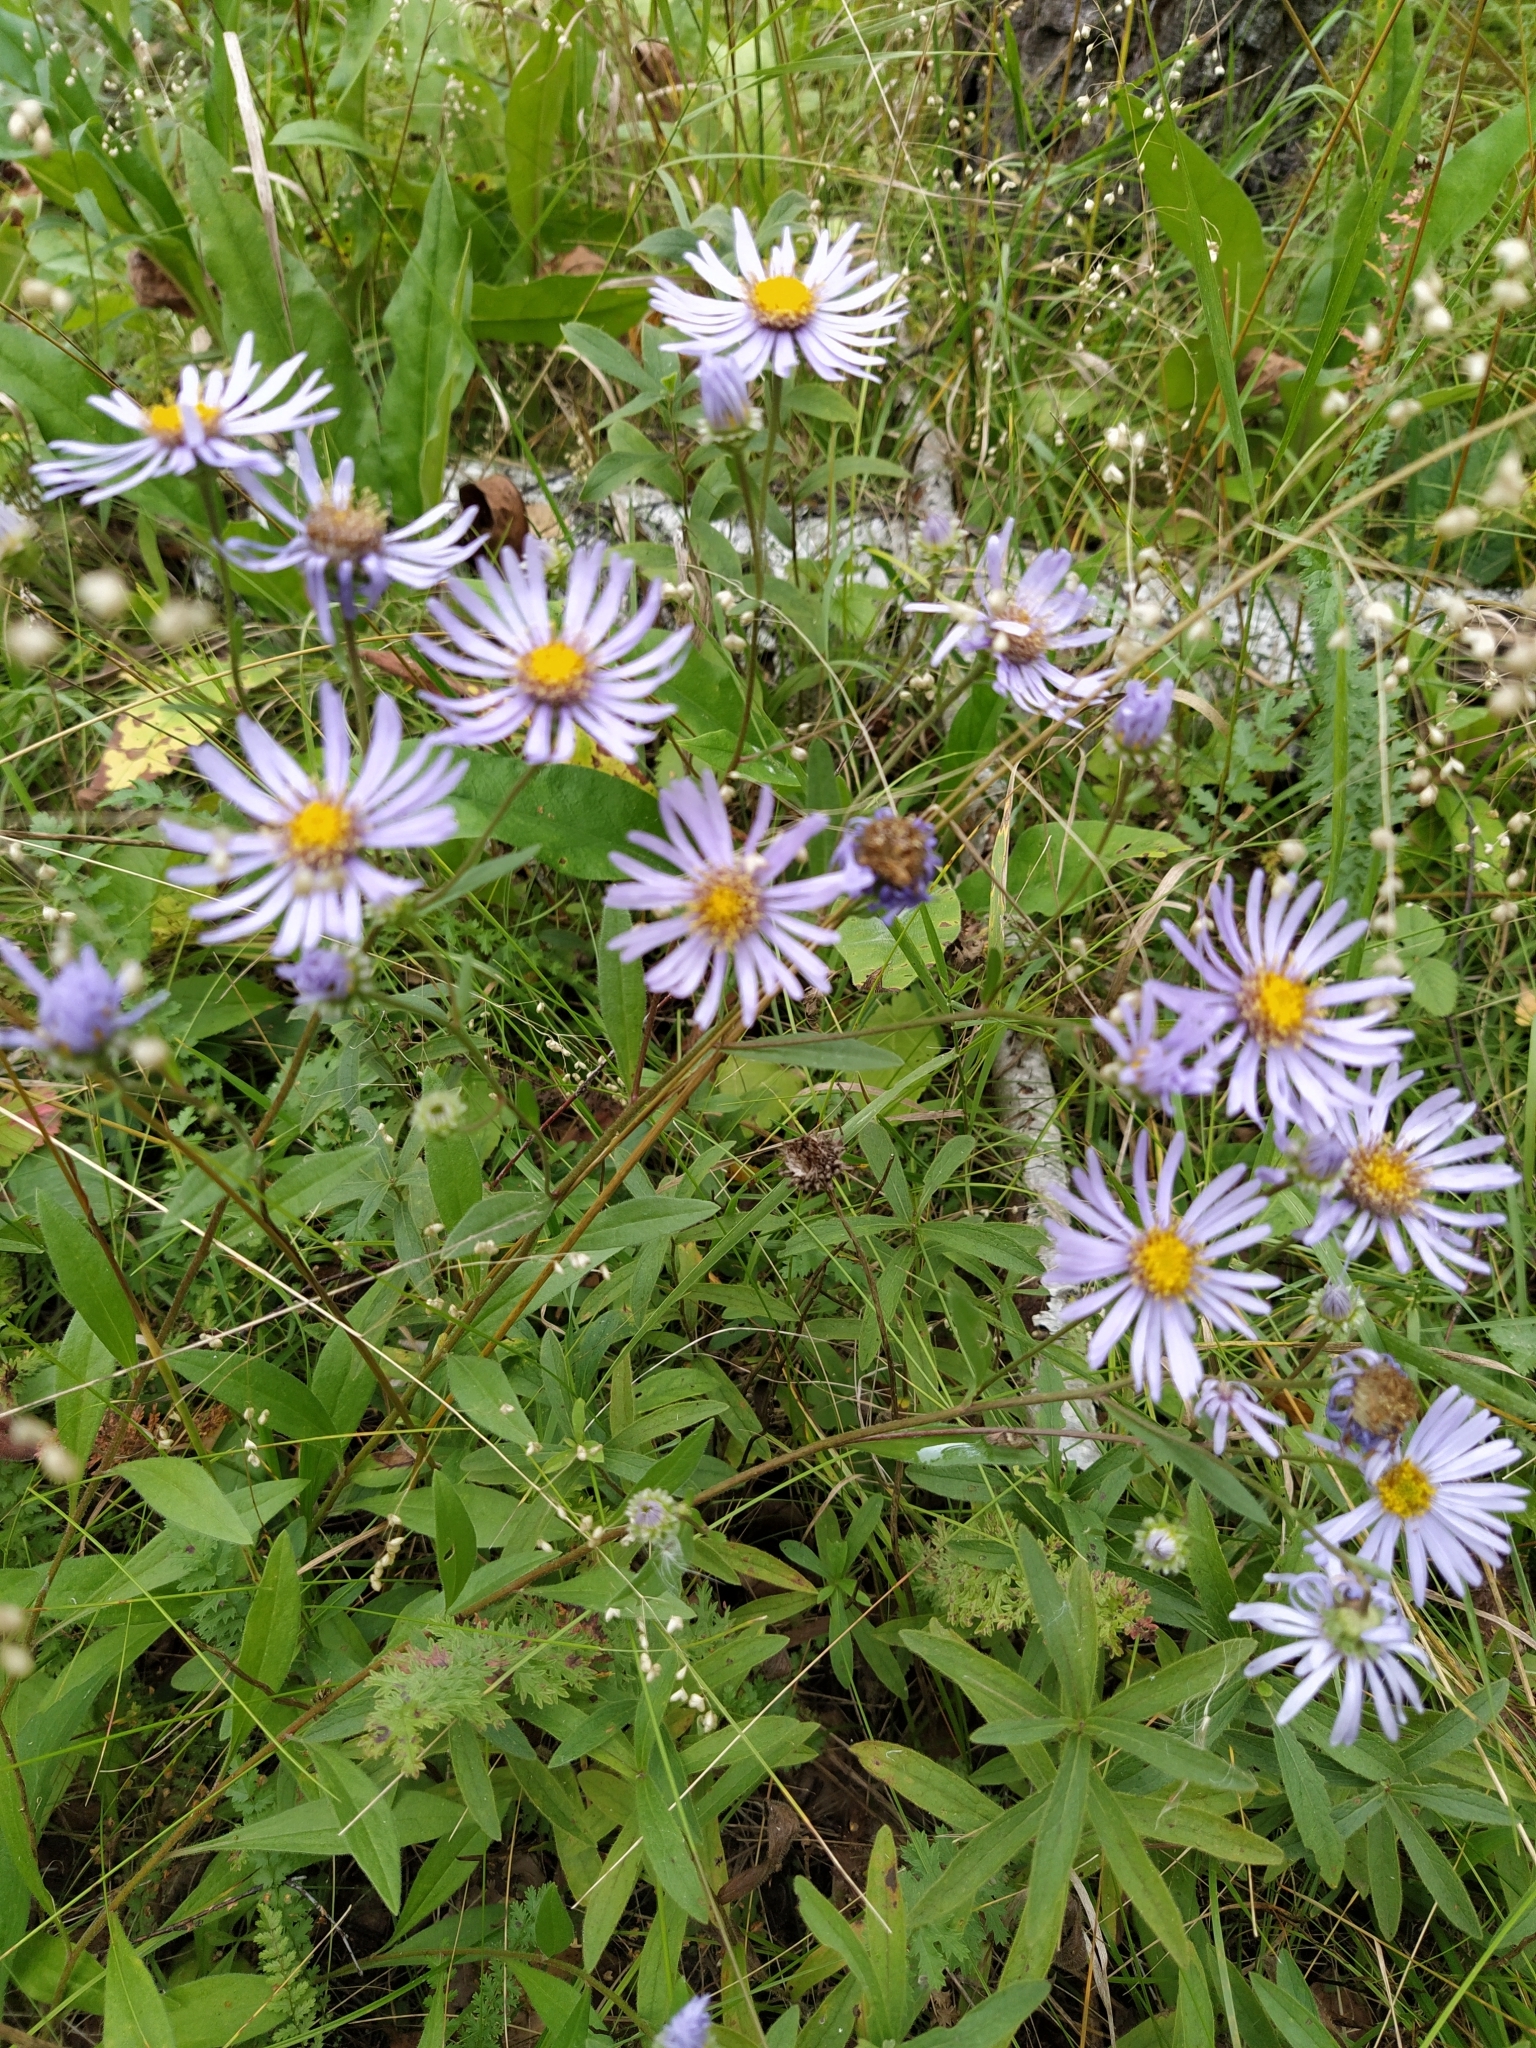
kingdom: Plantae
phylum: Tracheophyta
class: Magnoliopsida
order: Asterales
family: Asteraceae
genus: Aster
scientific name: Aster amellus
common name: European michaelmas daisy
